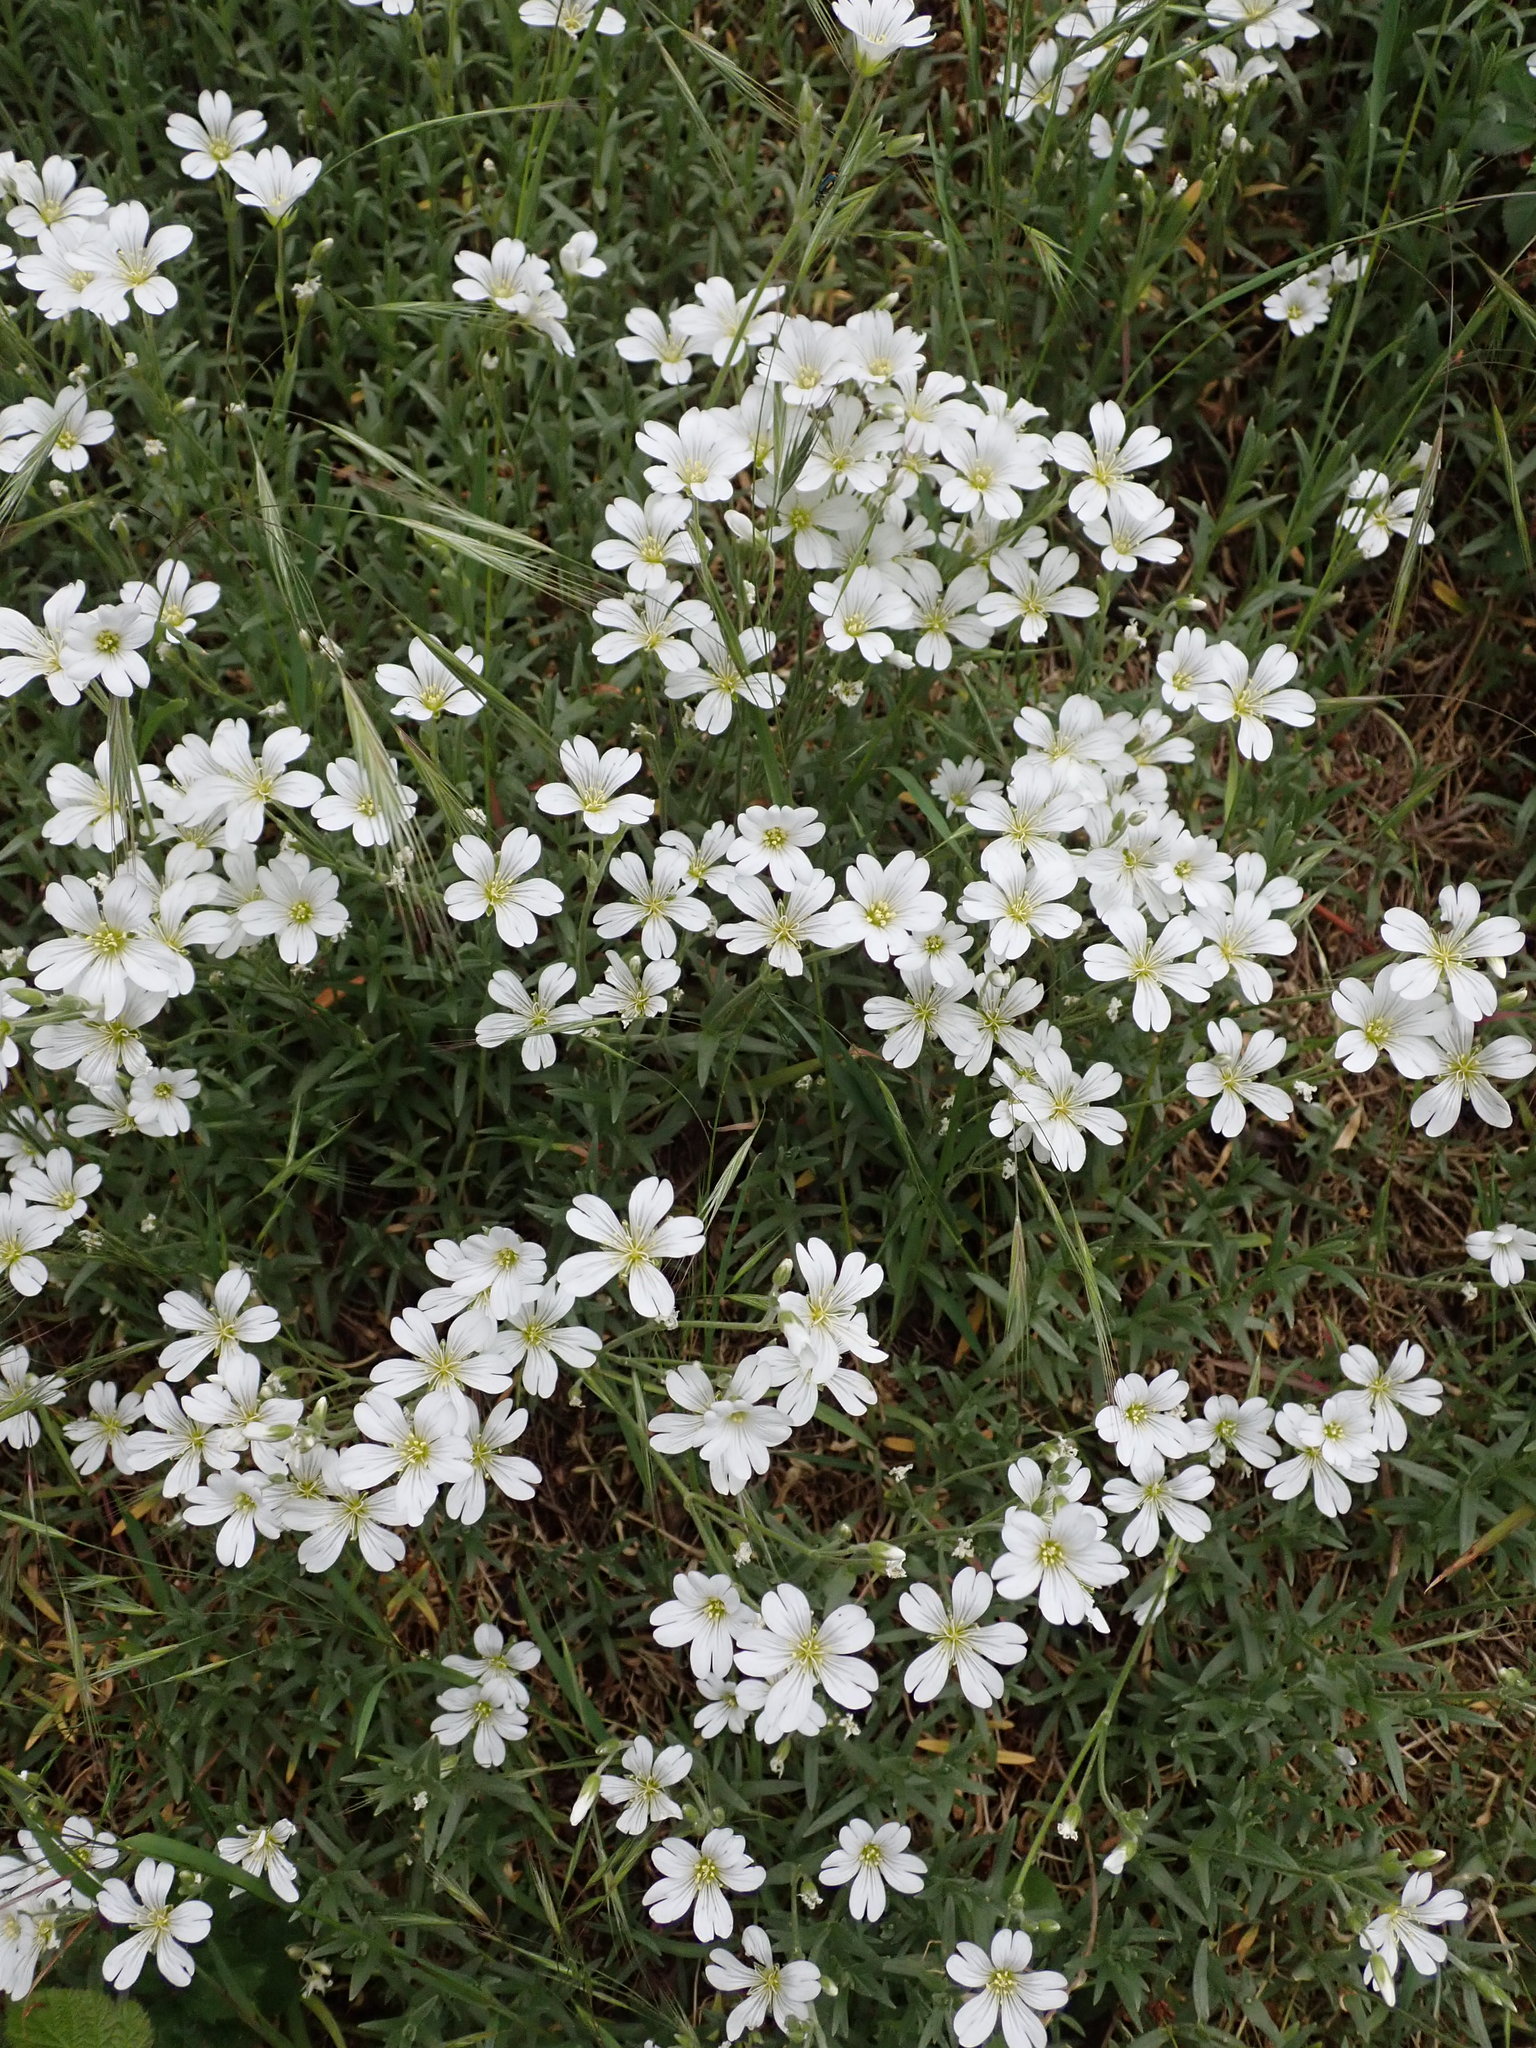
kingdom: Plantae
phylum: Tracheophyta
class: Magnoliopsida
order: Caryophyllales
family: Caryophyllaceae
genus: Cerastium
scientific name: Cerastium arvense
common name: Field mouse-ear
